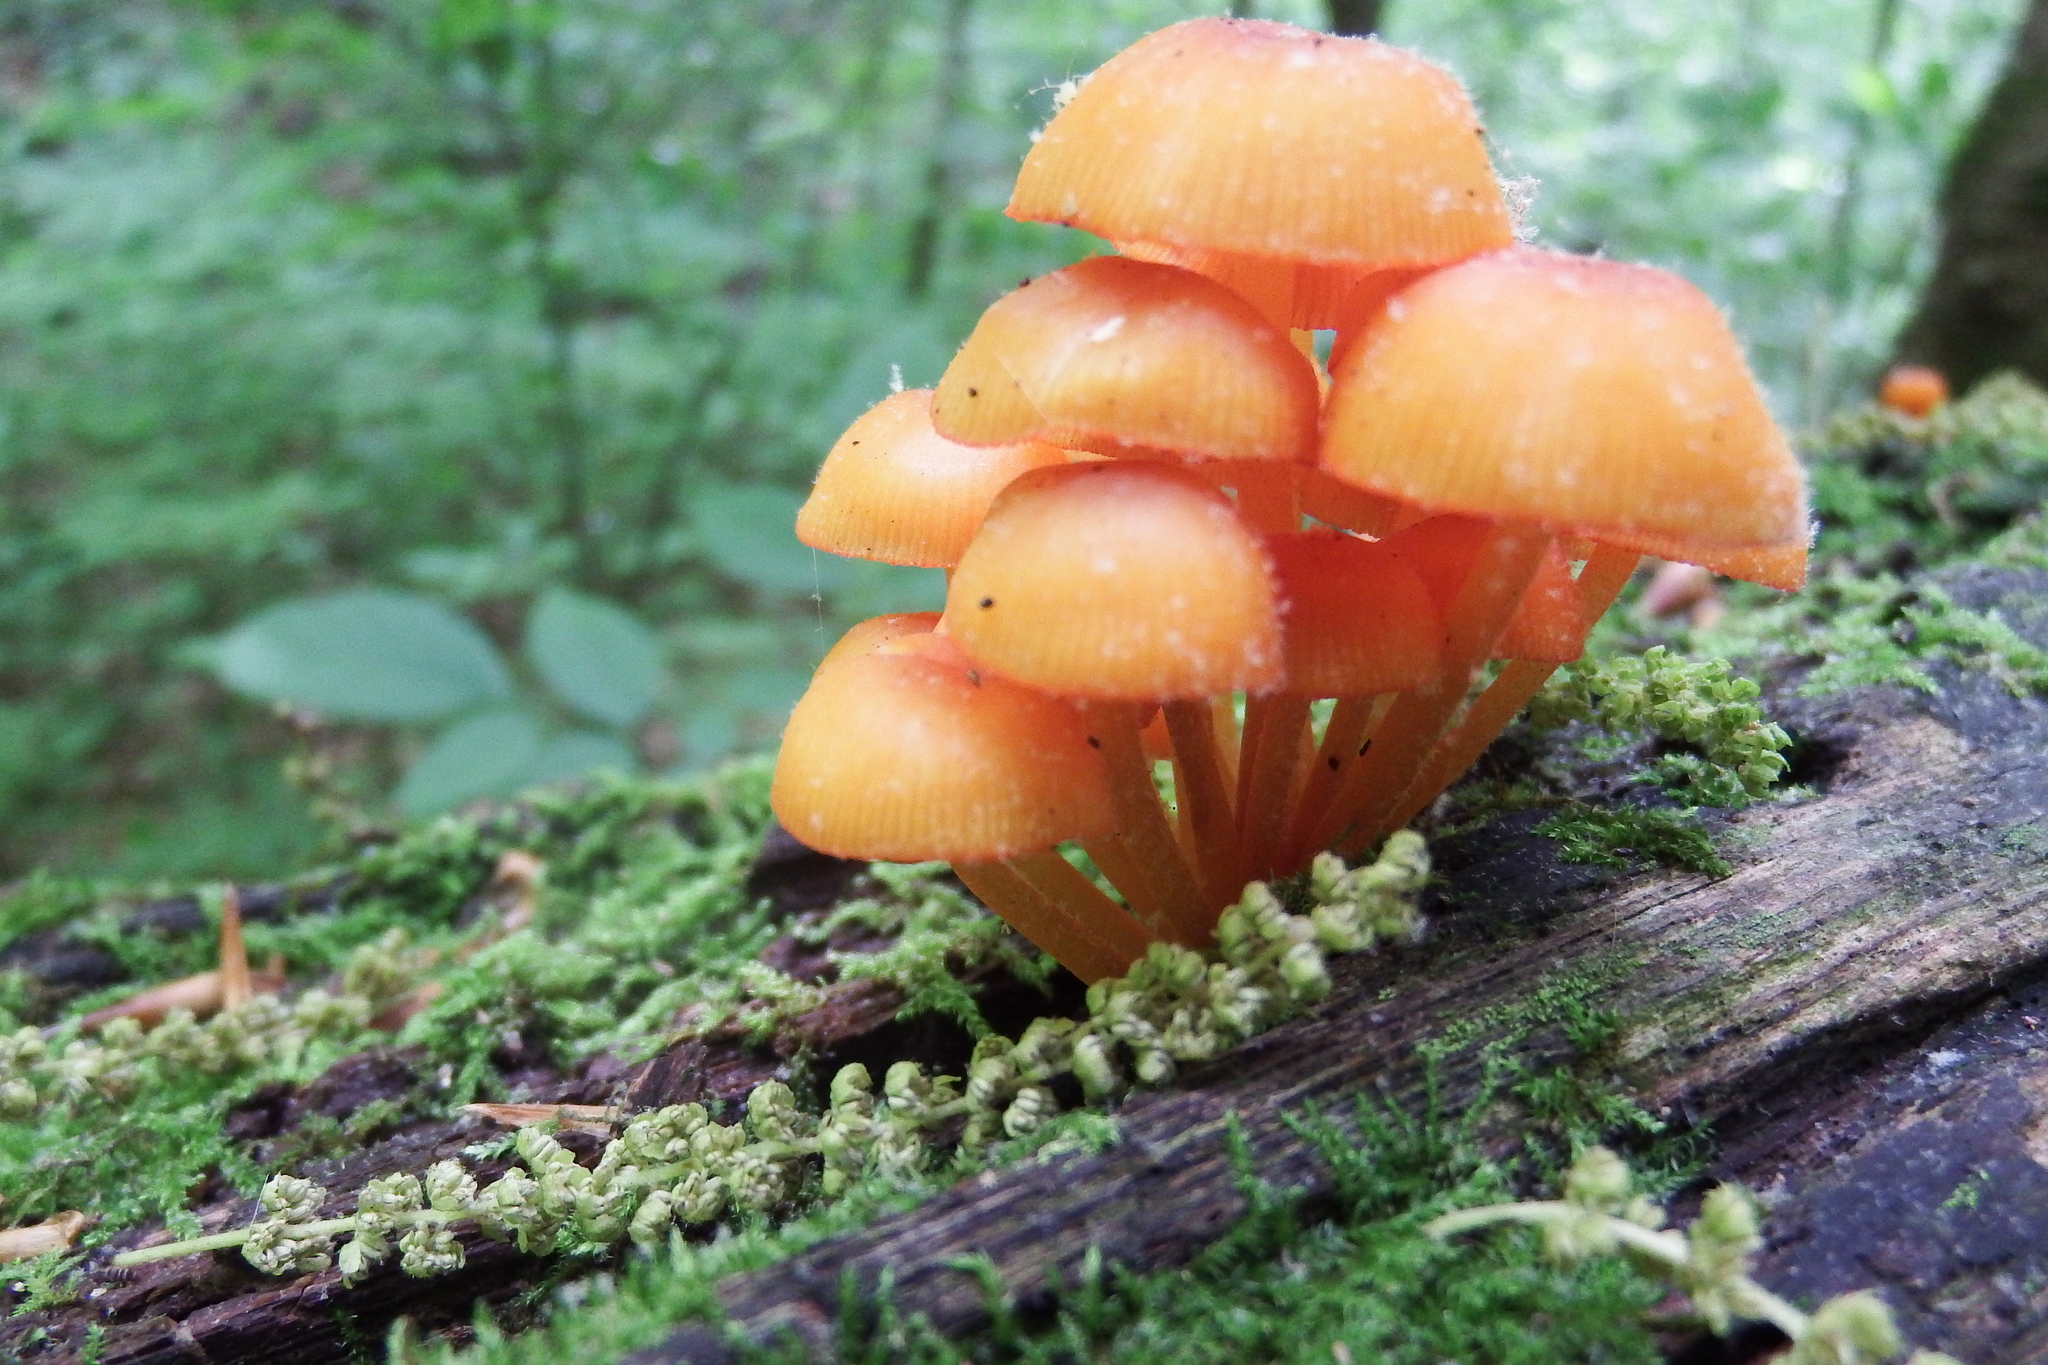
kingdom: Fungi
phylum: Basidiomycota
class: Agaricomycetes
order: Agaricales
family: Mycenaceae
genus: Mycena
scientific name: Mycena leaiana
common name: Orange mycena
